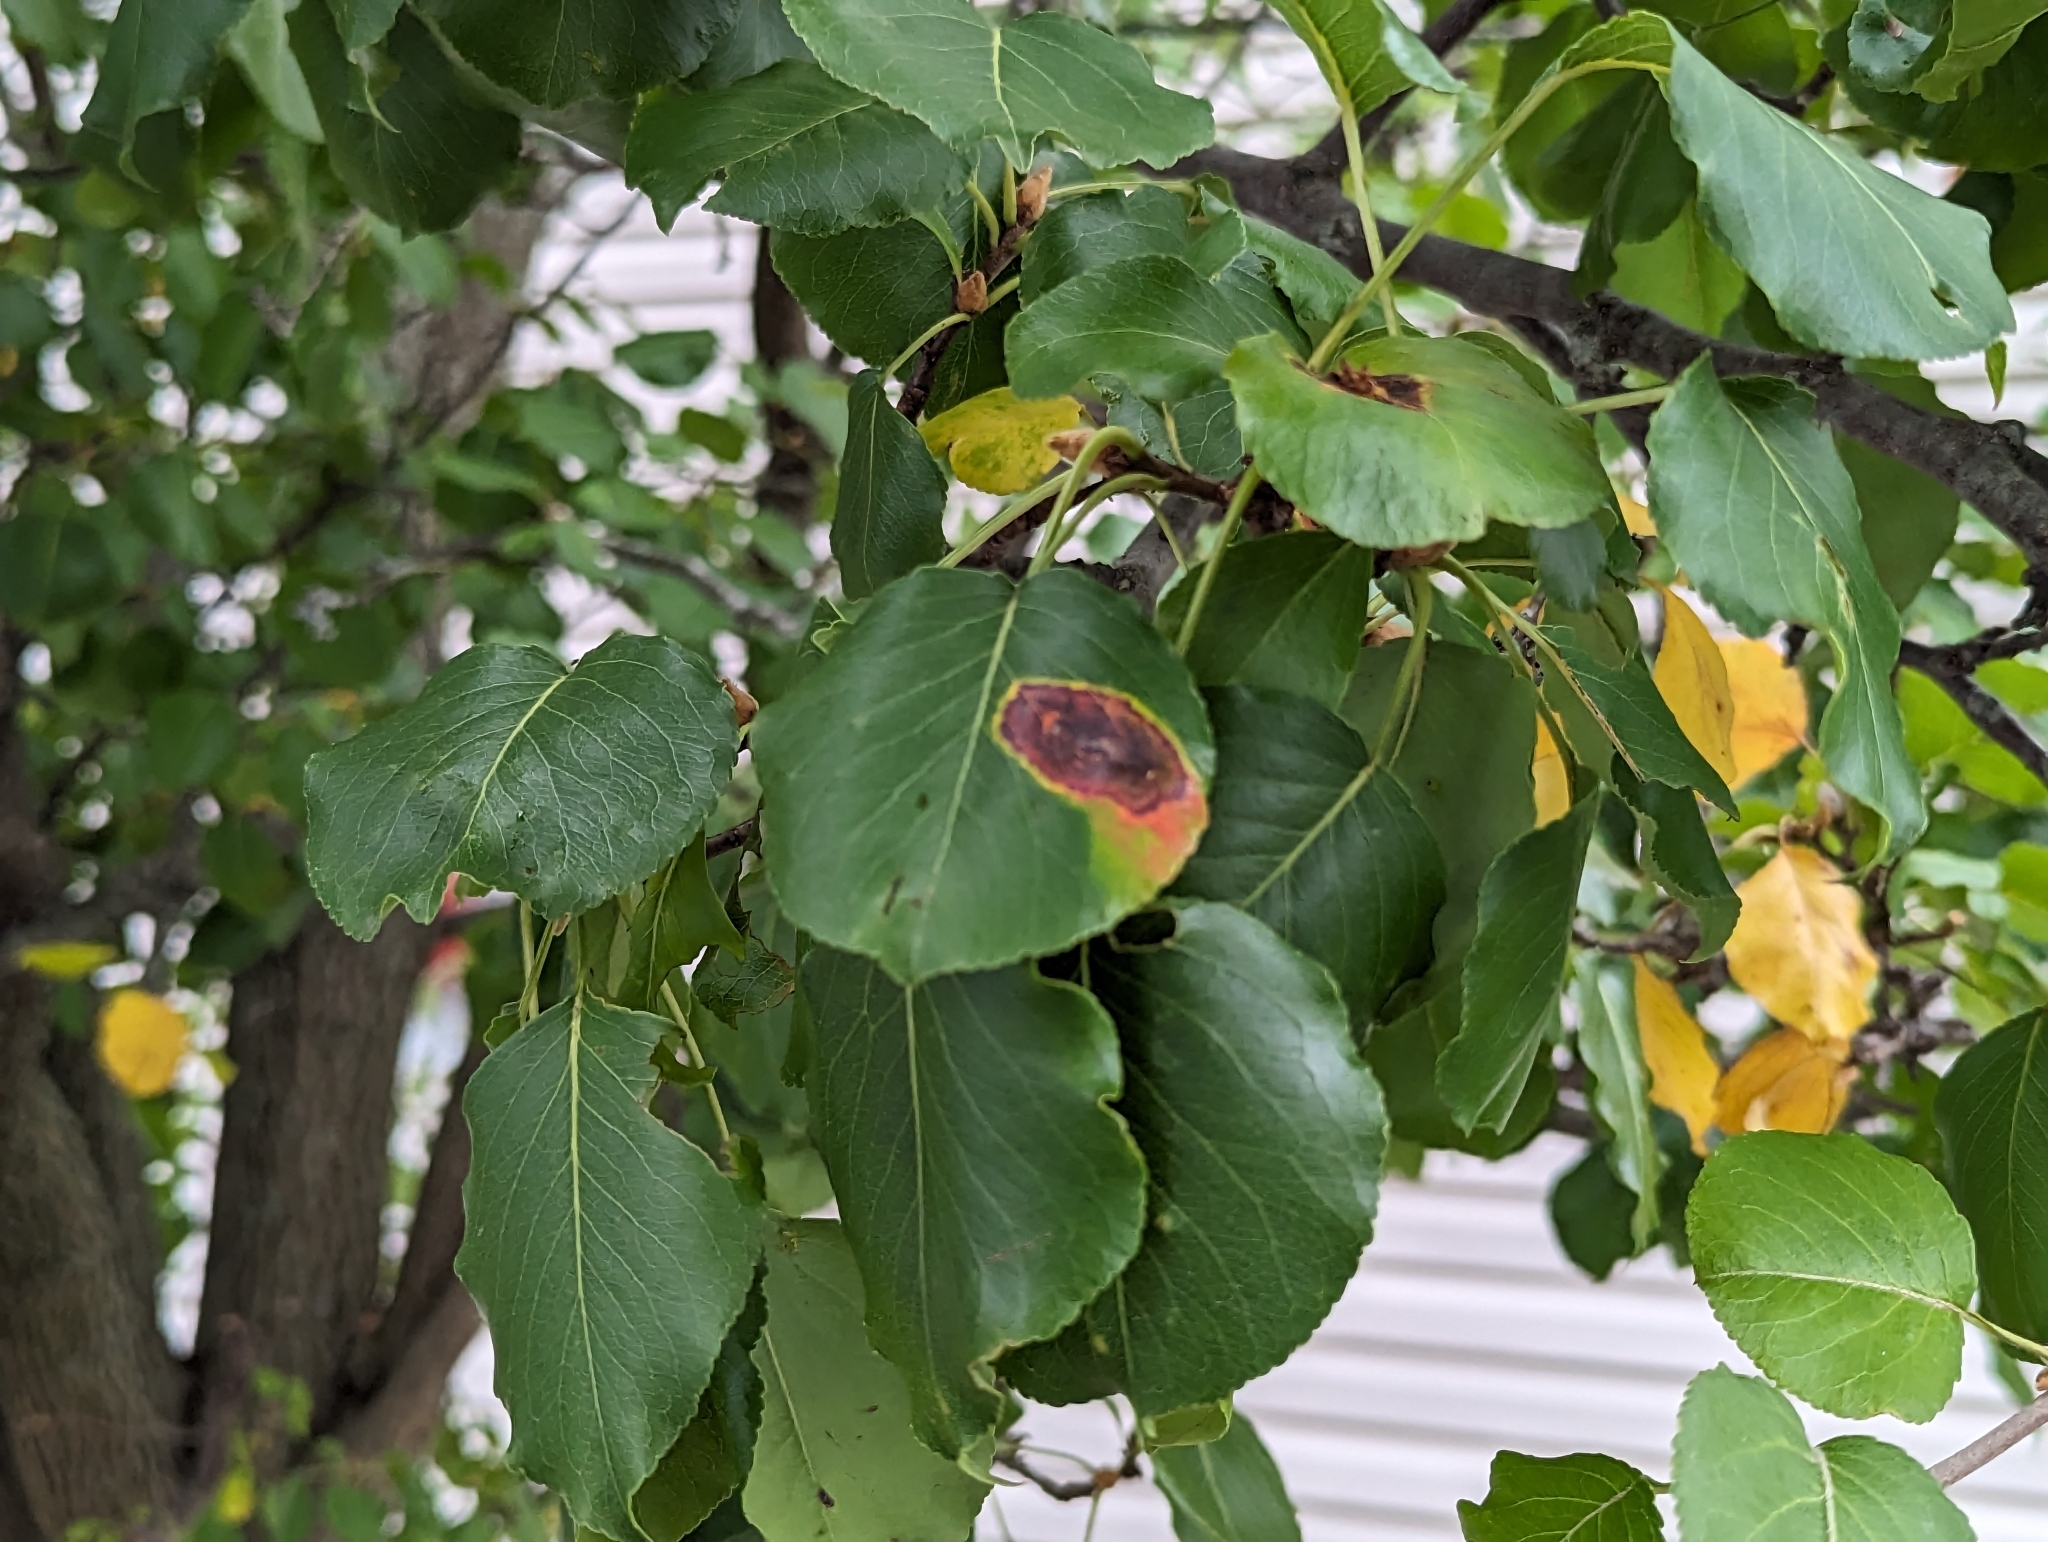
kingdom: Fungi
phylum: Basidiomycota
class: Pucciniomycetes
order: Pucciniales
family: Gymnosporangiaceae
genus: Gymnosporangium
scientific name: Gymnosporangium sabinae
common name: Pear trellis rust fungus
